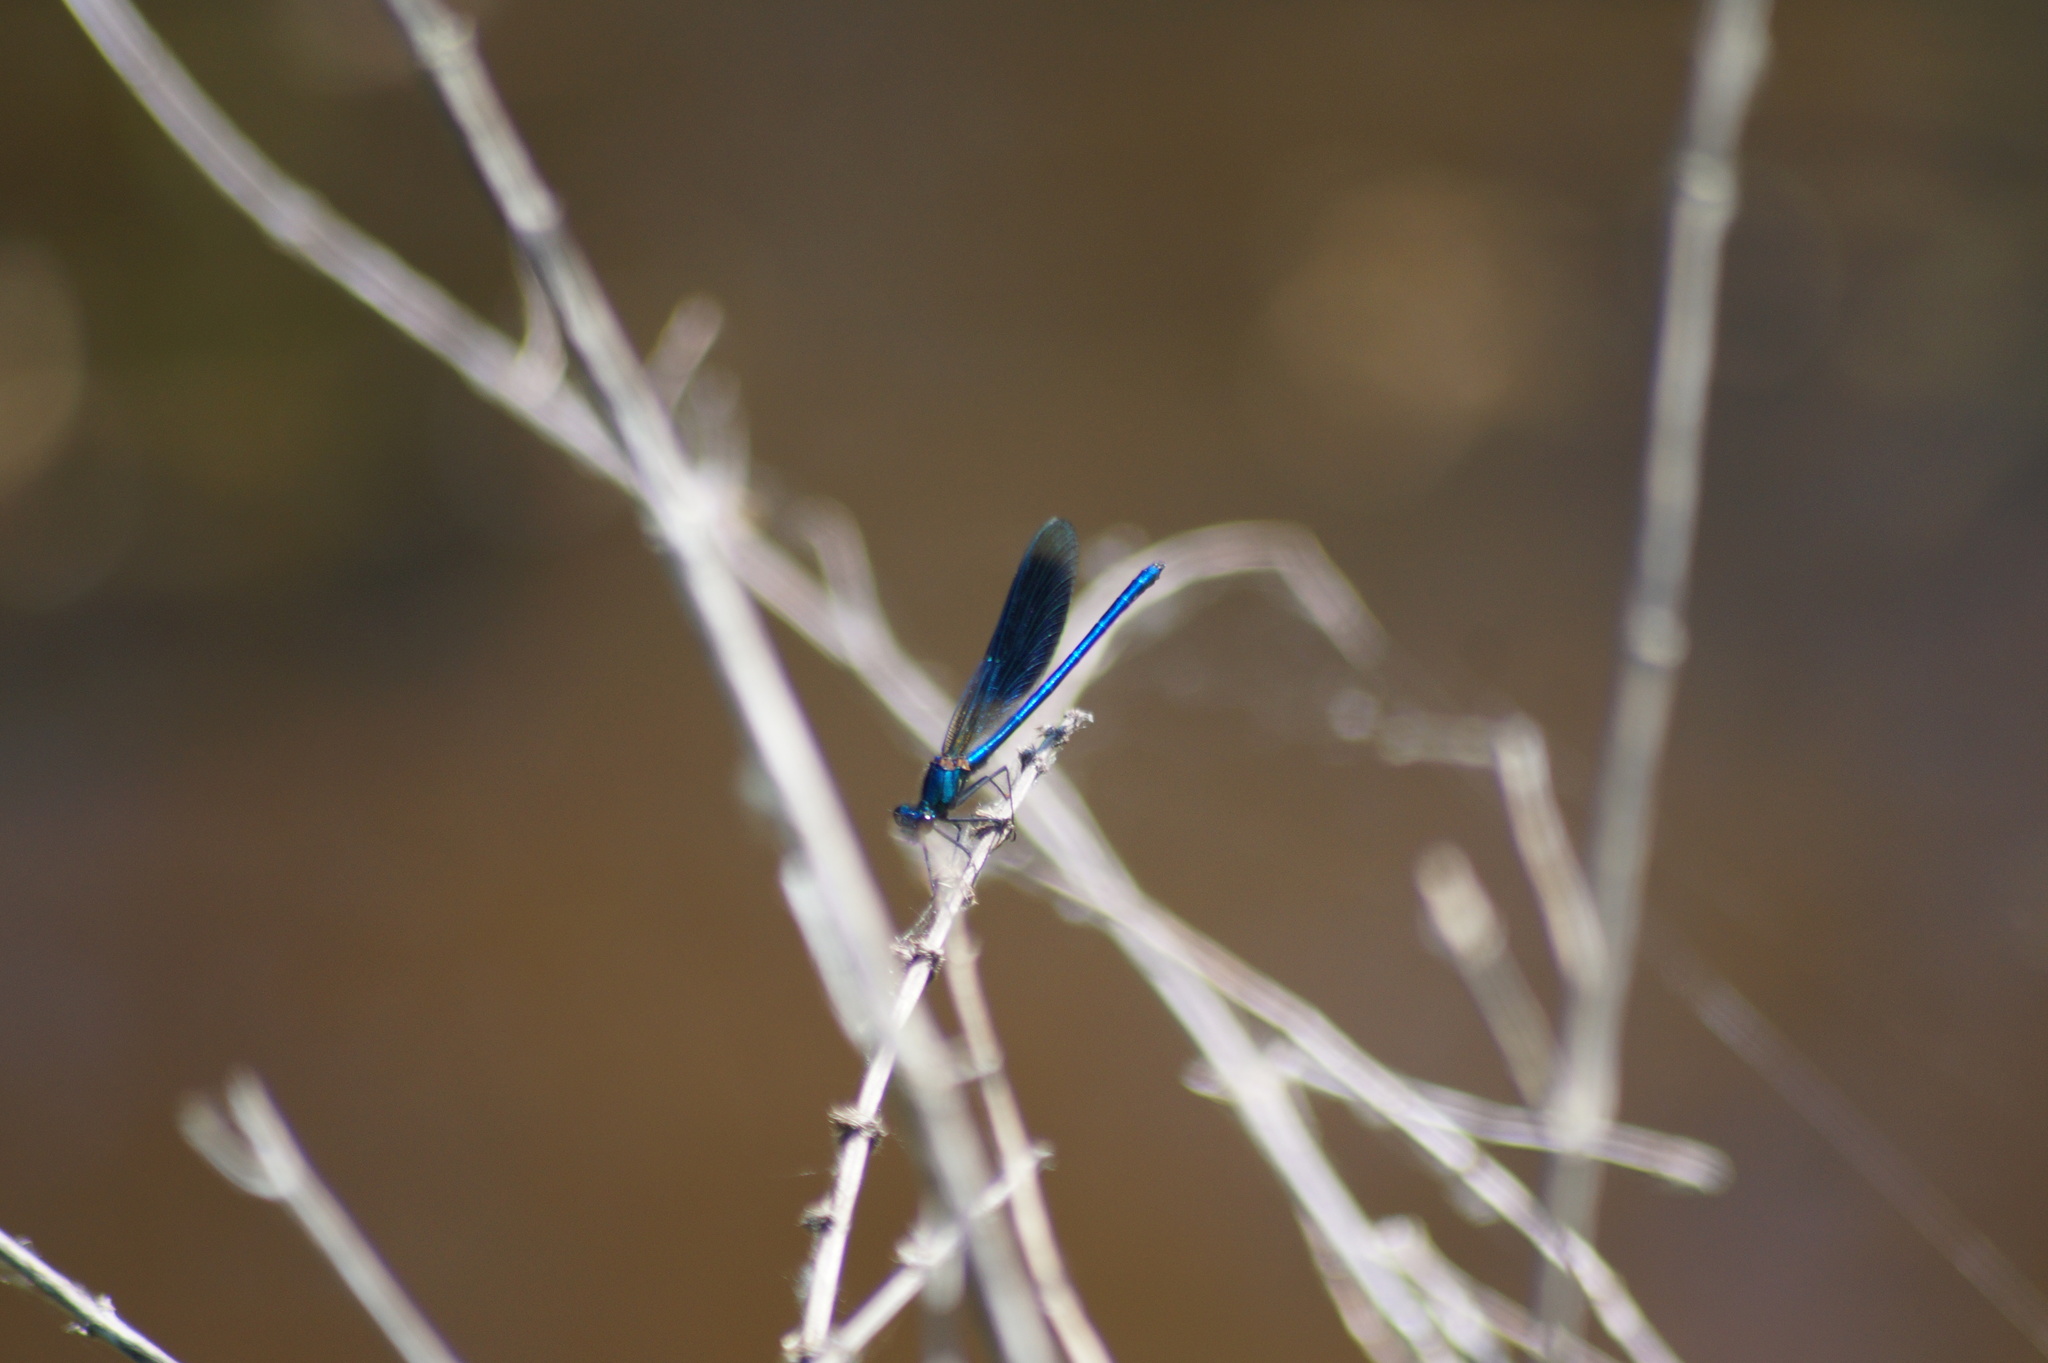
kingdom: Animalia
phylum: Arthropoda
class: Insecta
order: Odonata
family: Calopterygidae
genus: Calopteryx
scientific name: Calopteryx splendens
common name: Banded demoiselle
